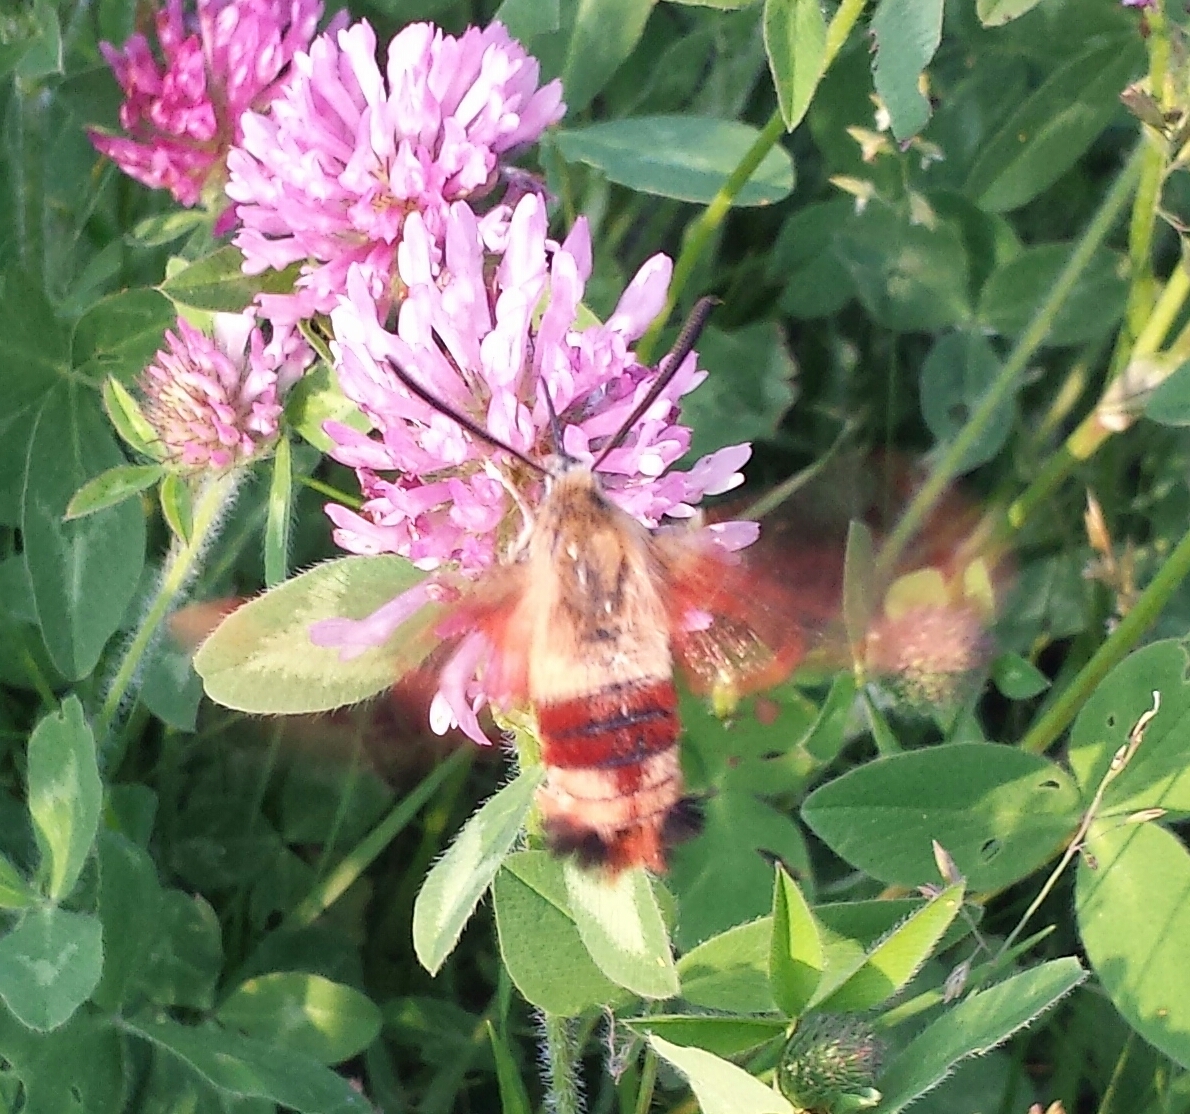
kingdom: Animalia
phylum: Arthropoda
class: Insecta
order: Lepidoptera
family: Sphingidae
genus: Hemaris
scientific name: Hemaris thysbe
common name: Common clear-wing
